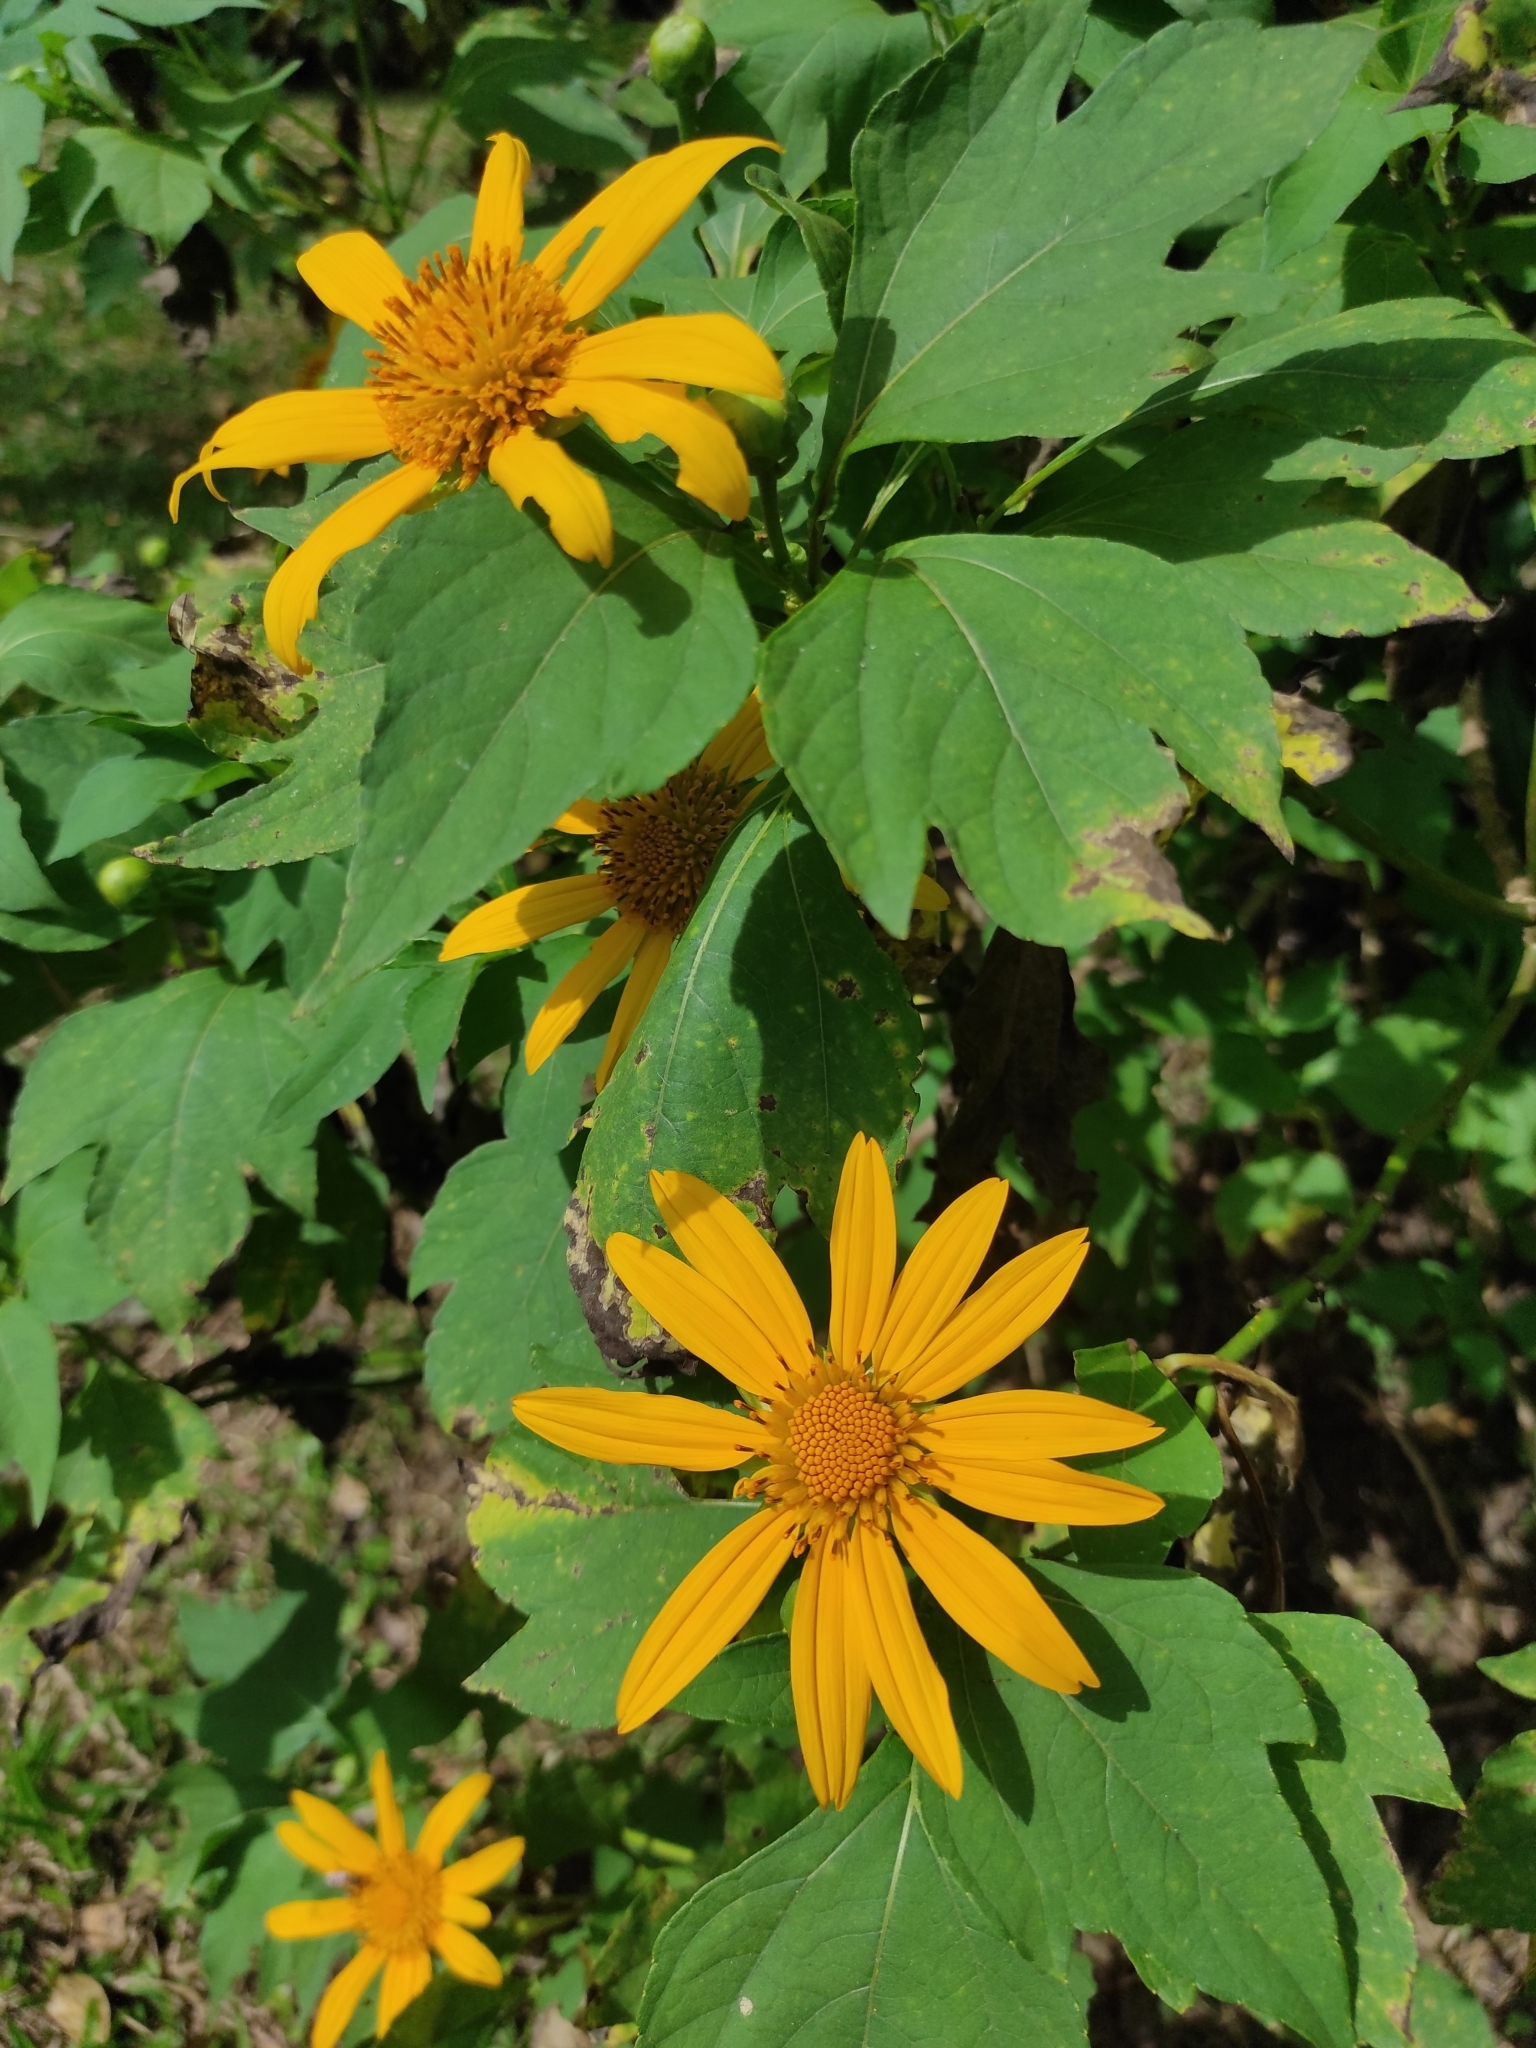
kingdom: Plantae
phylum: Tracheophyta
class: Magnoliopsida
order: Asterales
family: Asteraceae
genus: Tithonia
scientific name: Tithonia diversifolia
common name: Tree marigold
